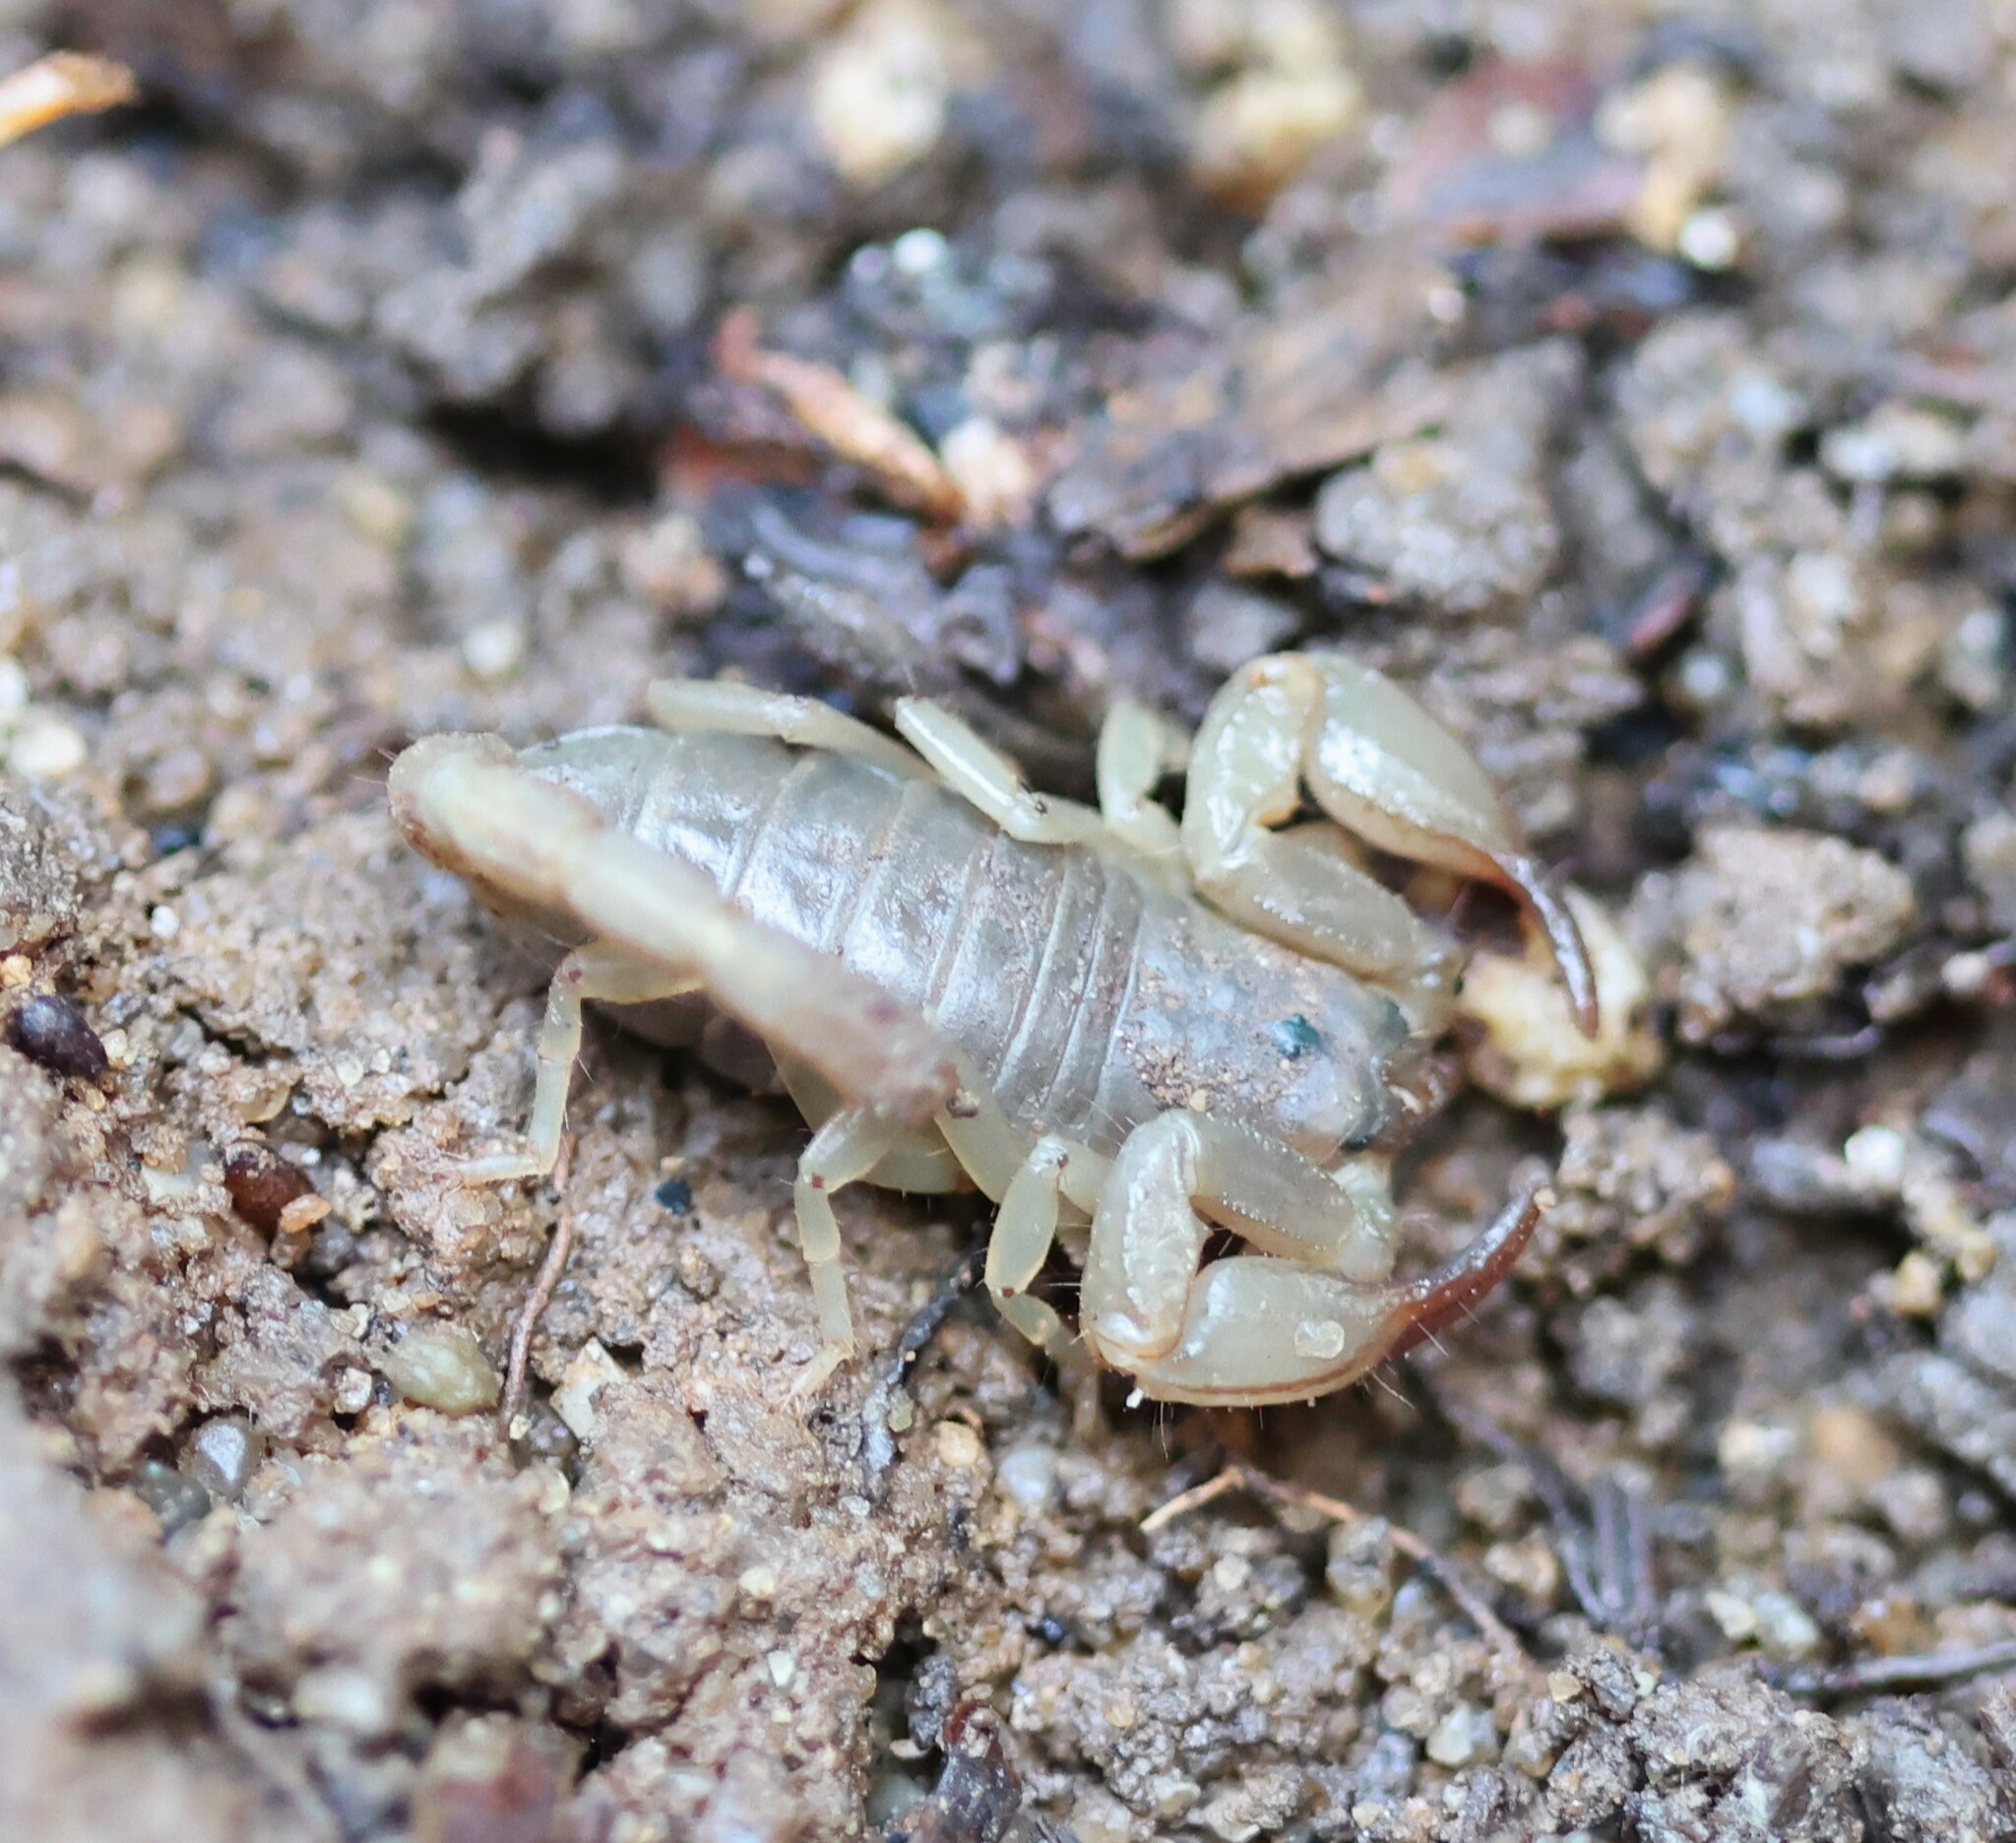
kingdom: Animalia
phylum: Arthropoda
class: Arachnida
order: Scorpiones
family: Chactidae
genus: Uroctonus
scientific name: Uroctonus mordax
